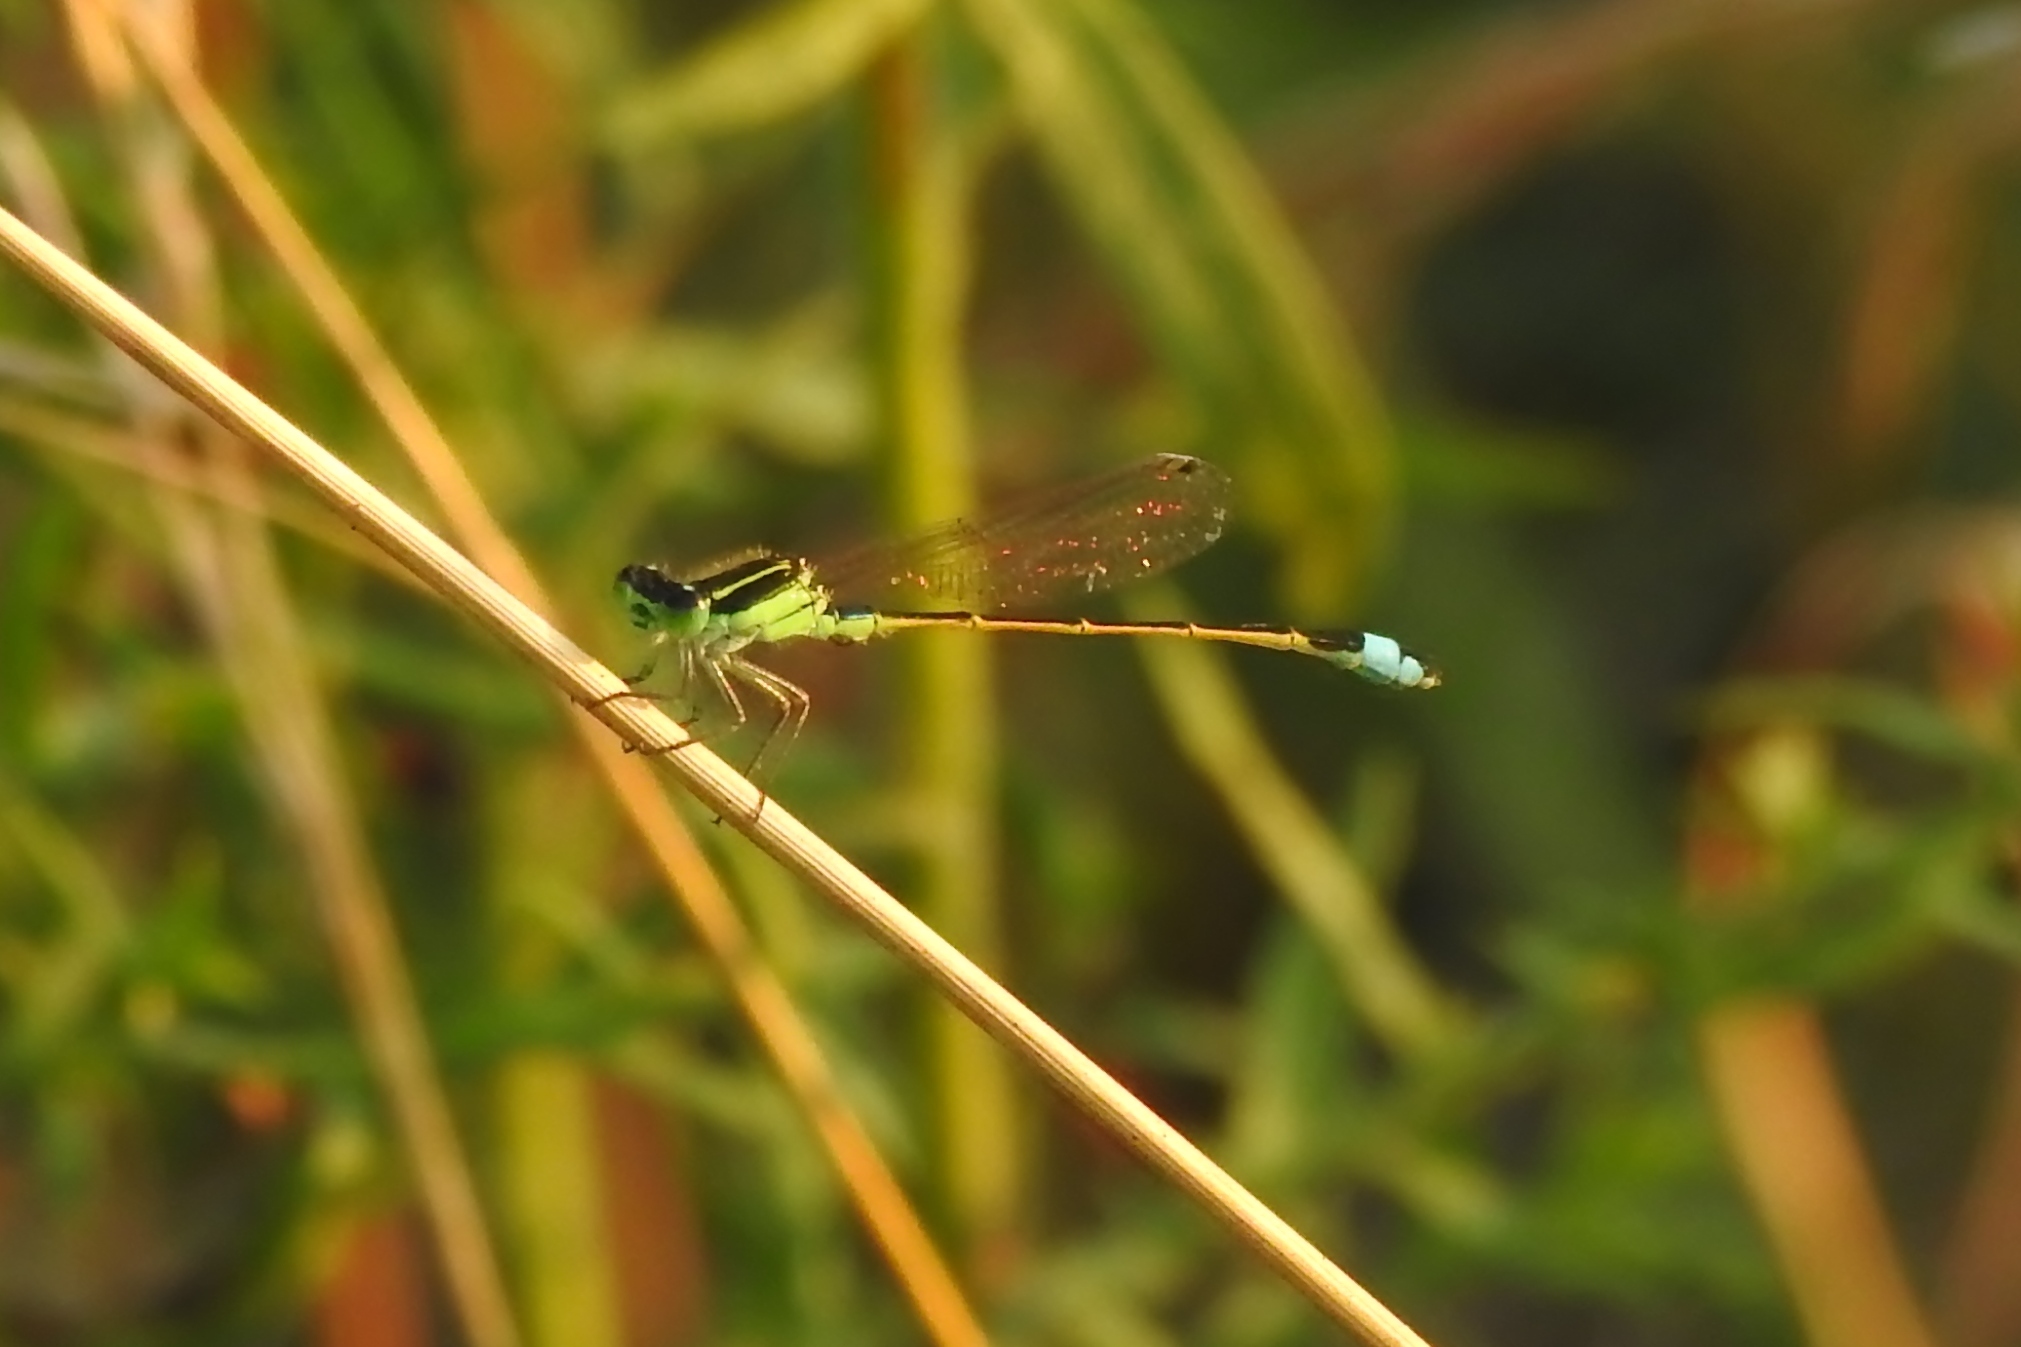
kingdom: Animalia
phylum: Arthropoda
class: Insecta
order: Odonata
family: Coenagrionidae
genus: Ischnura
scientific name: Ischnura ramburii
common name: Rambur's forktail
